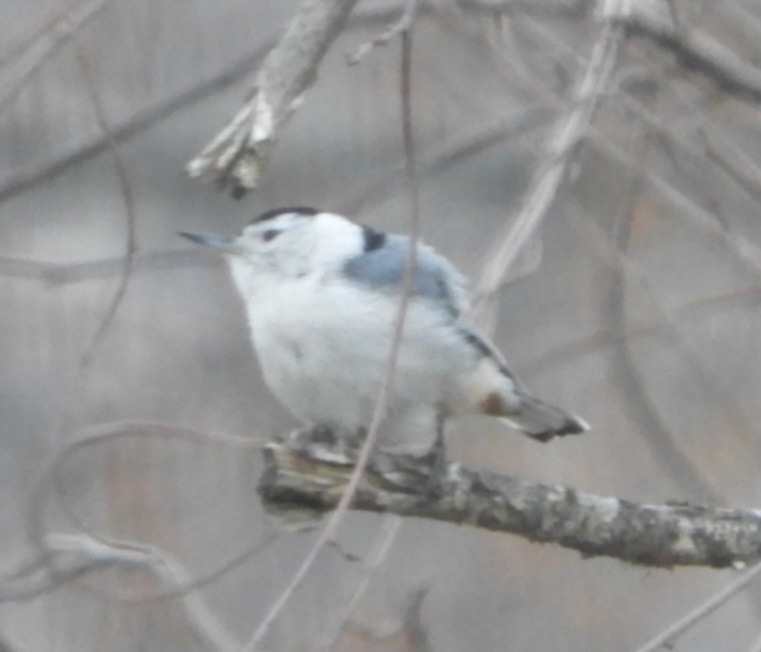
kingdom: Animalia
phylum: Chordata
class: Aves
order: Passeriformes
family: Sittidae
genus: Sitta
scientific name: Sitta carolinensis
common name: White-breasted nuthatch
